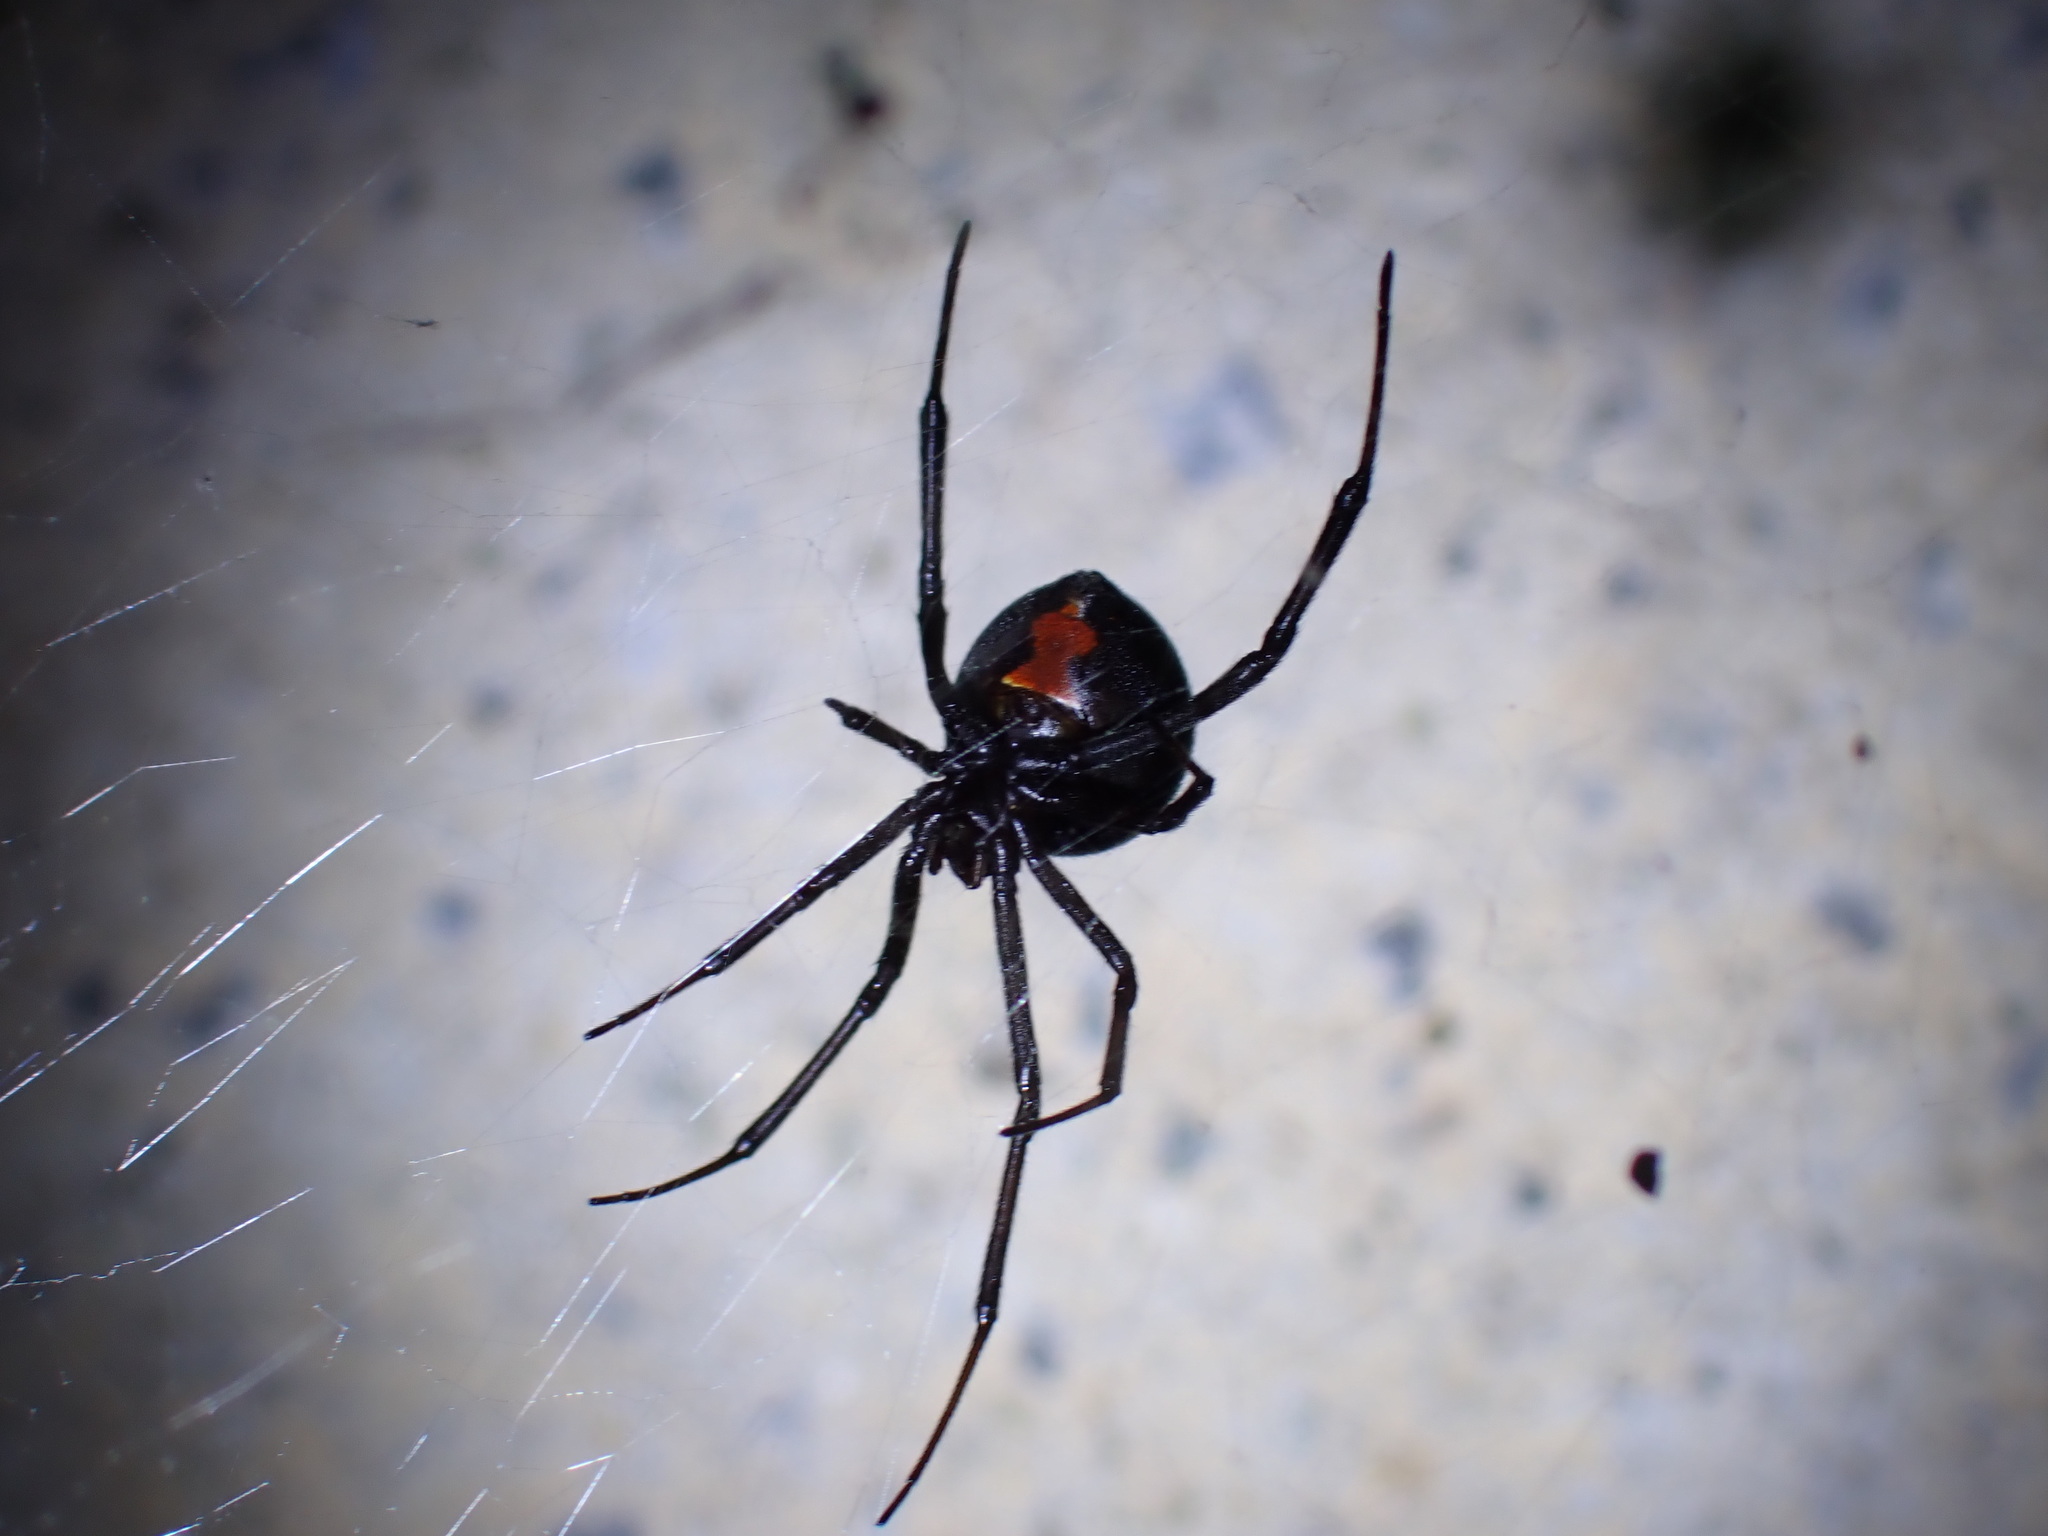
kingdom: Animalia
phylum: Arthropoda
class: Arachnida
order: Araneae
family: Theridiidae
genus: Latrodectus
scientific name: Latrodectus hasselti
